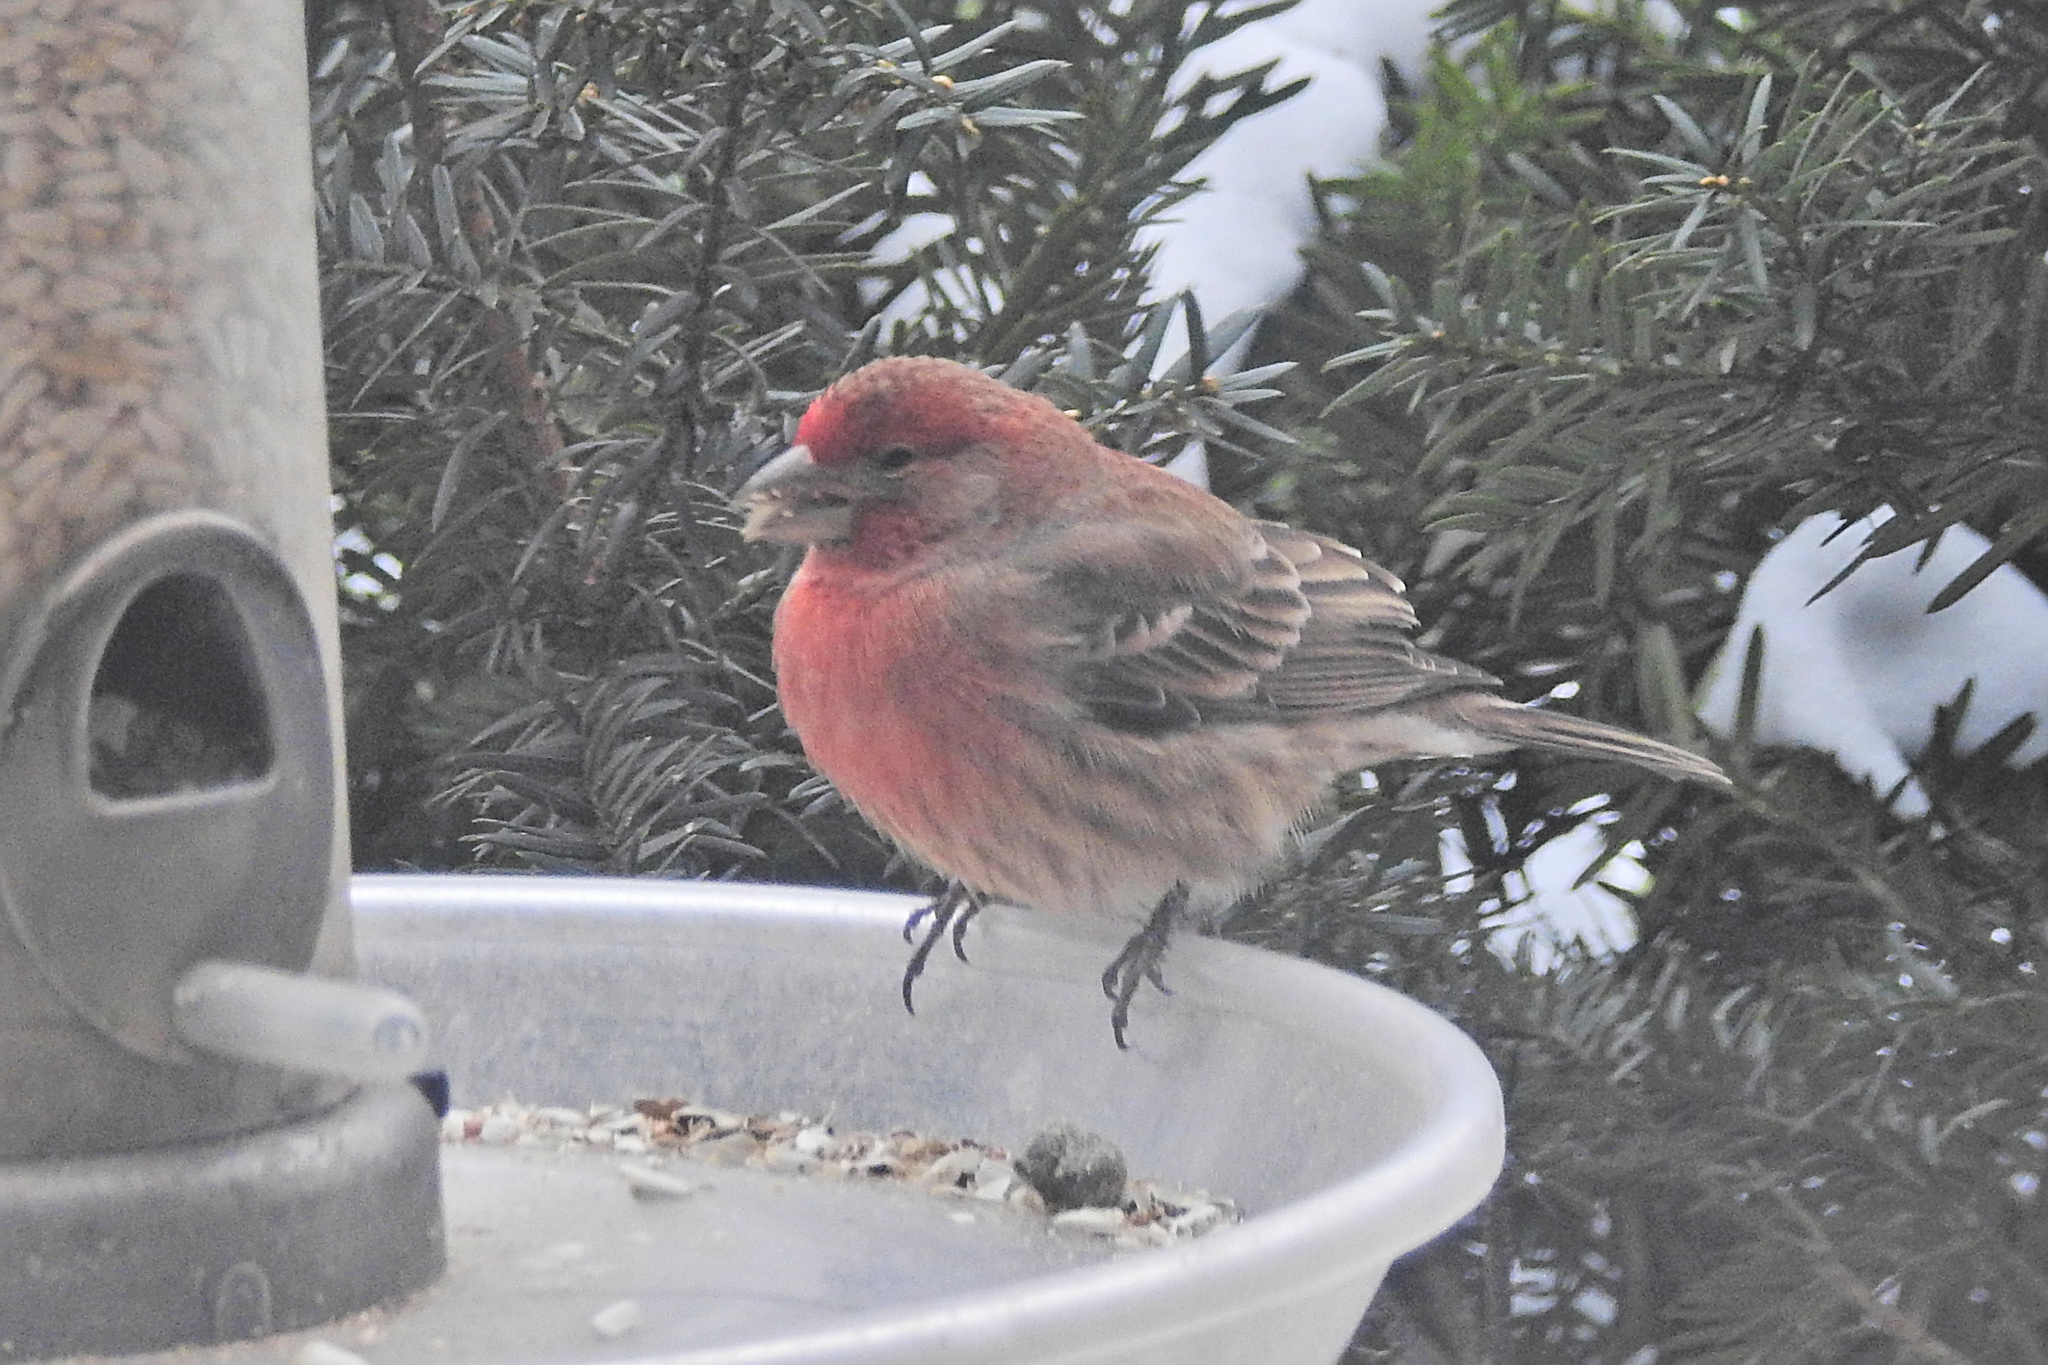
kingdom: Animalia
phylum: Chordata
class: Aves
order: Passeriformes
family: Fringillidae
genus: Haemorhous
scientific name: Haemorhous mexicanus
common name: House finch
